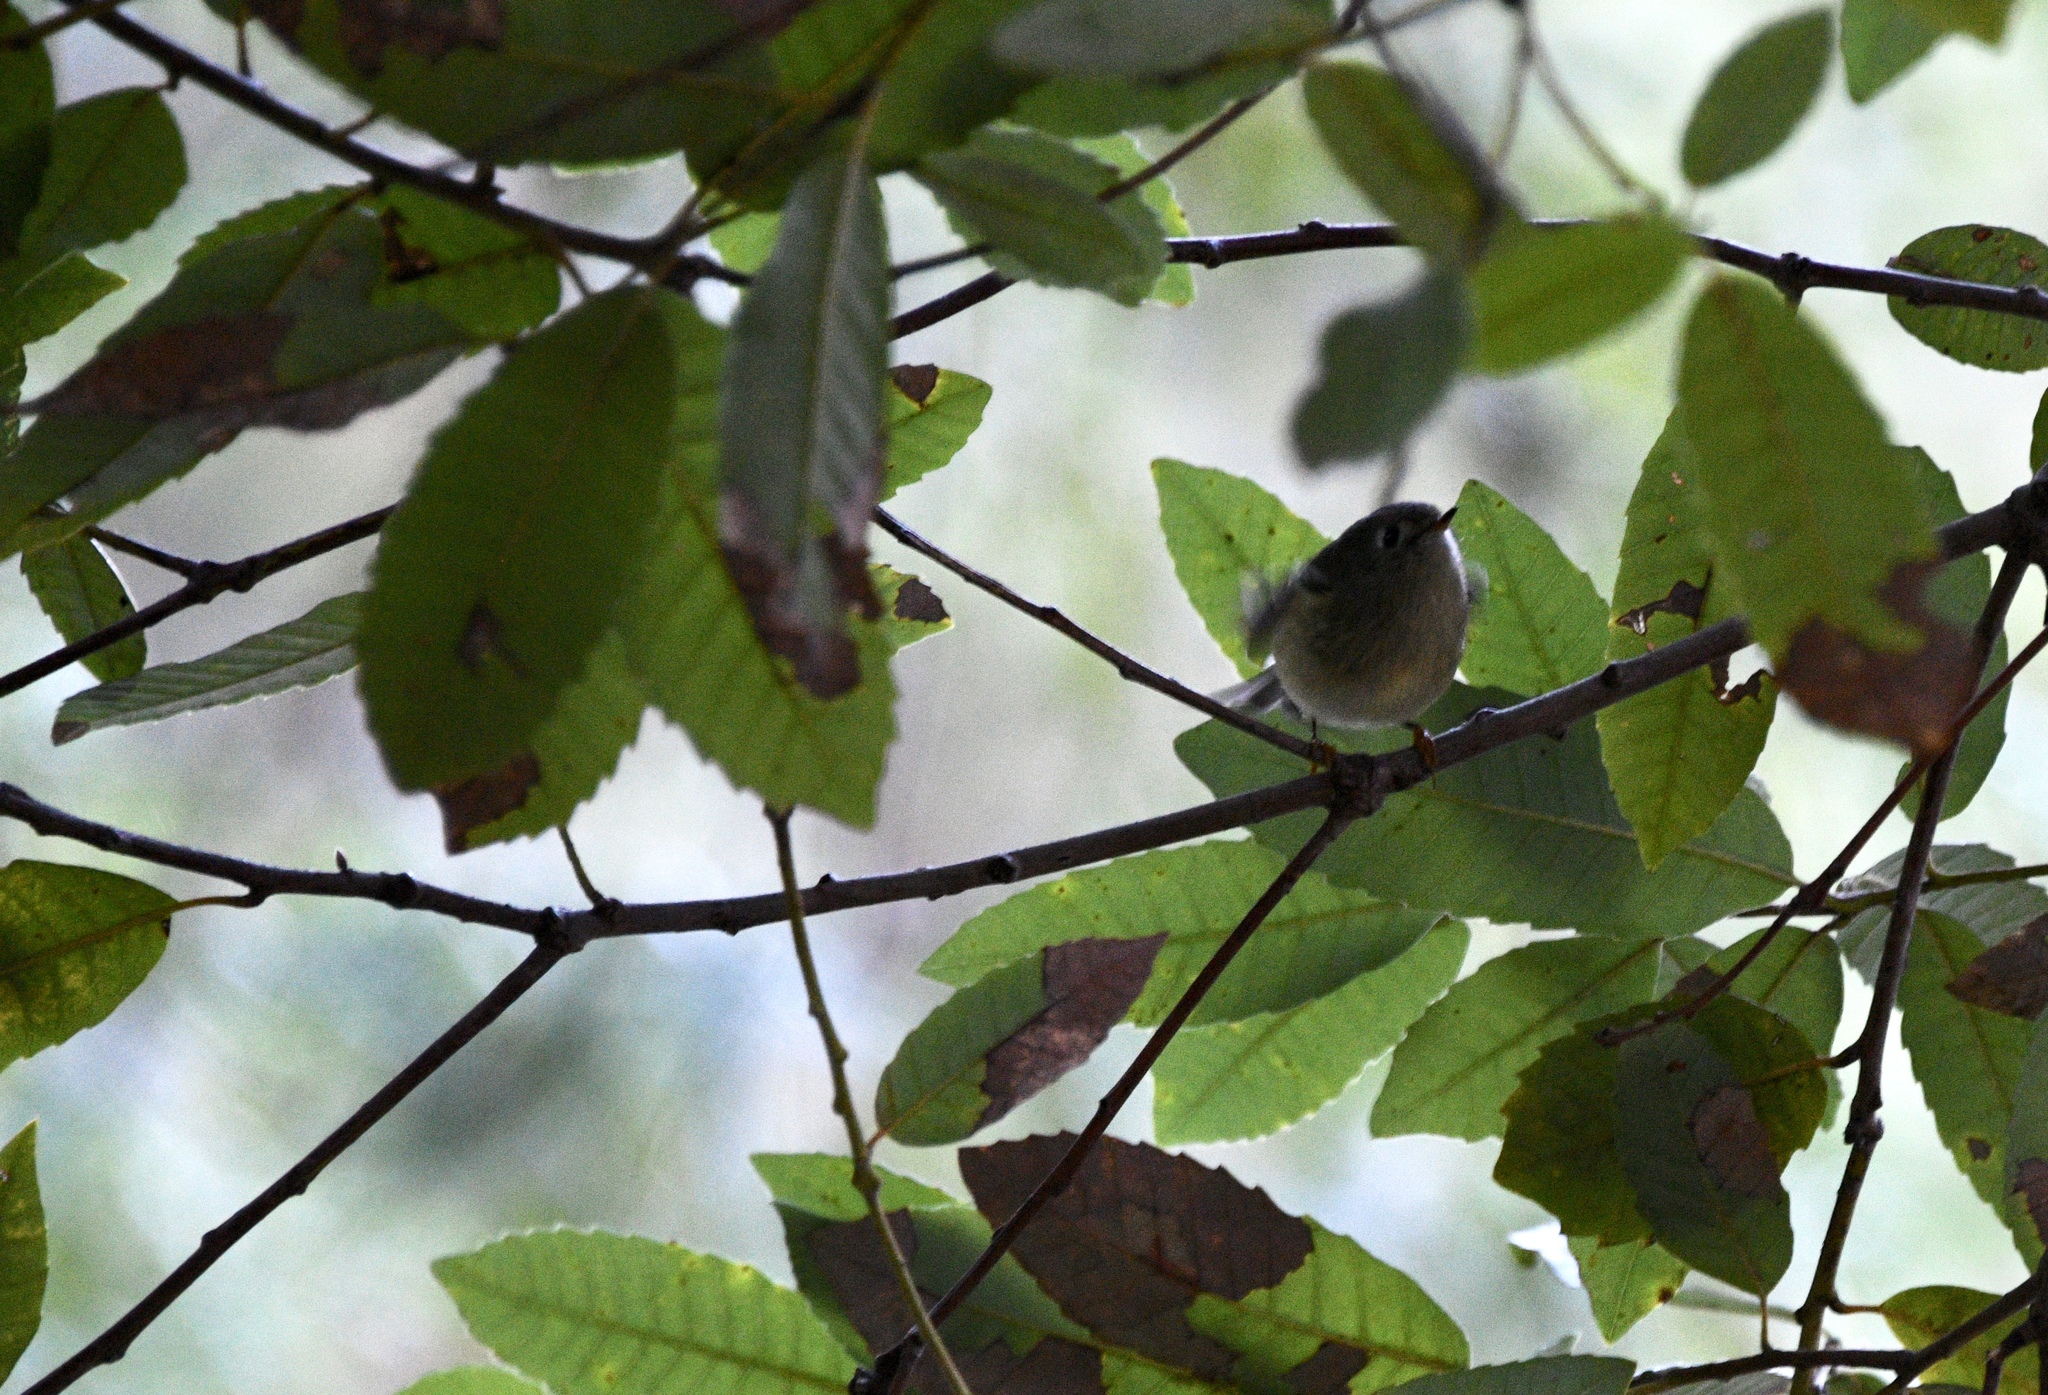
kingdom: Animalia
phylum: Chordata
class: Aves
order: Passeriformes
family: Regulidae
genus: Regulus
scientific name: Regulus calendula
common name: Ruby-crowned kinglet
